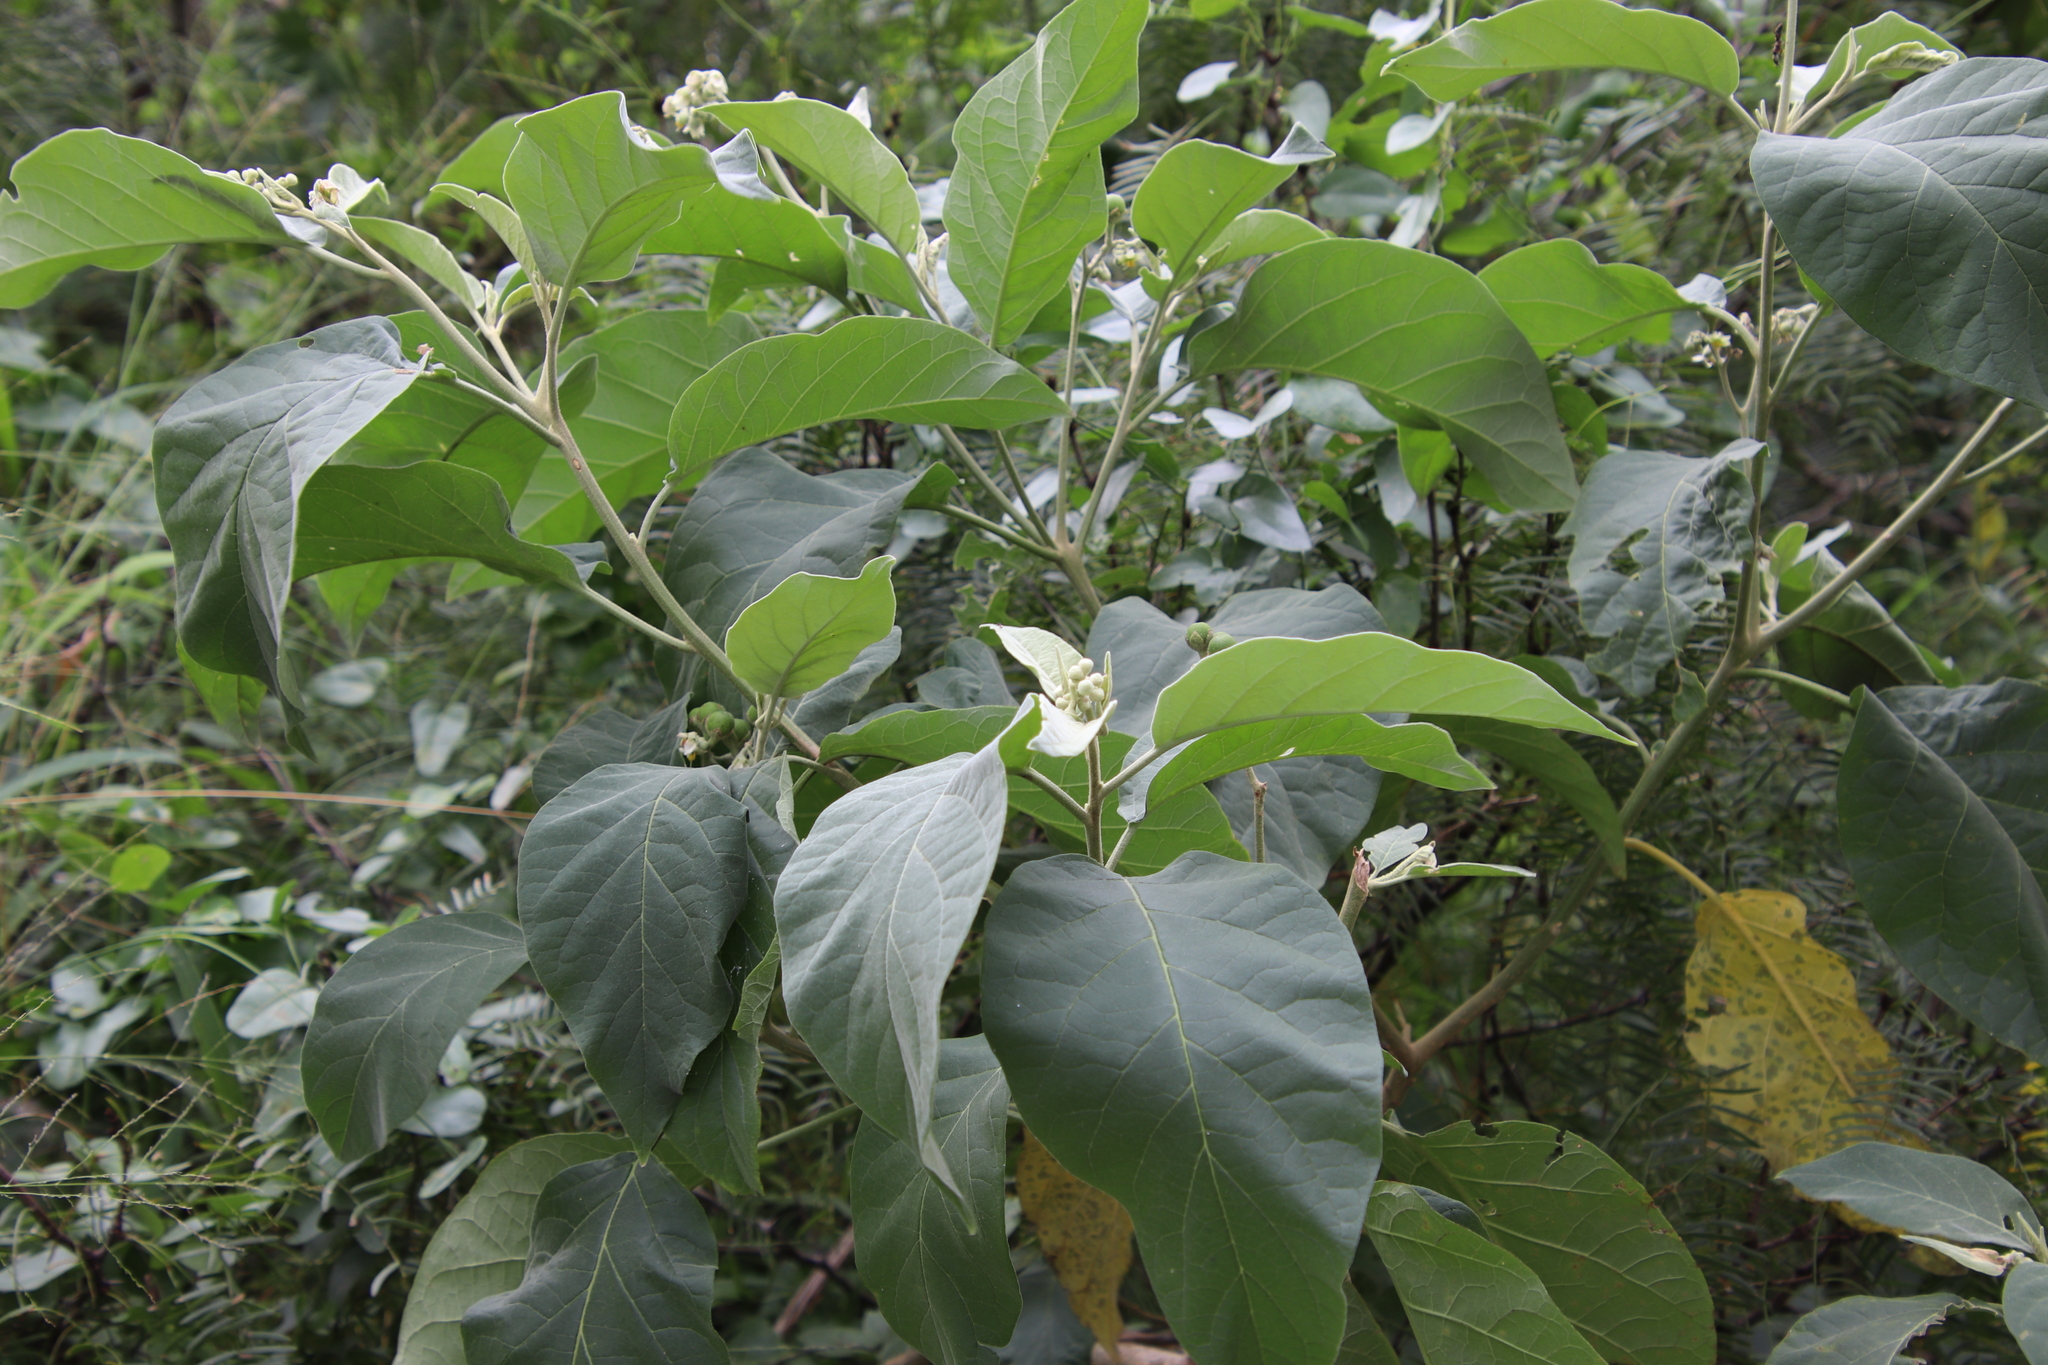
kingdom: Plantae
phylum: Tracheophyta
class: Magnoliopsida
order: Solanales
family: Solanaceae
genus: Solanum
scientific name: Solanum erianthum
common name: Tobacco-tree
